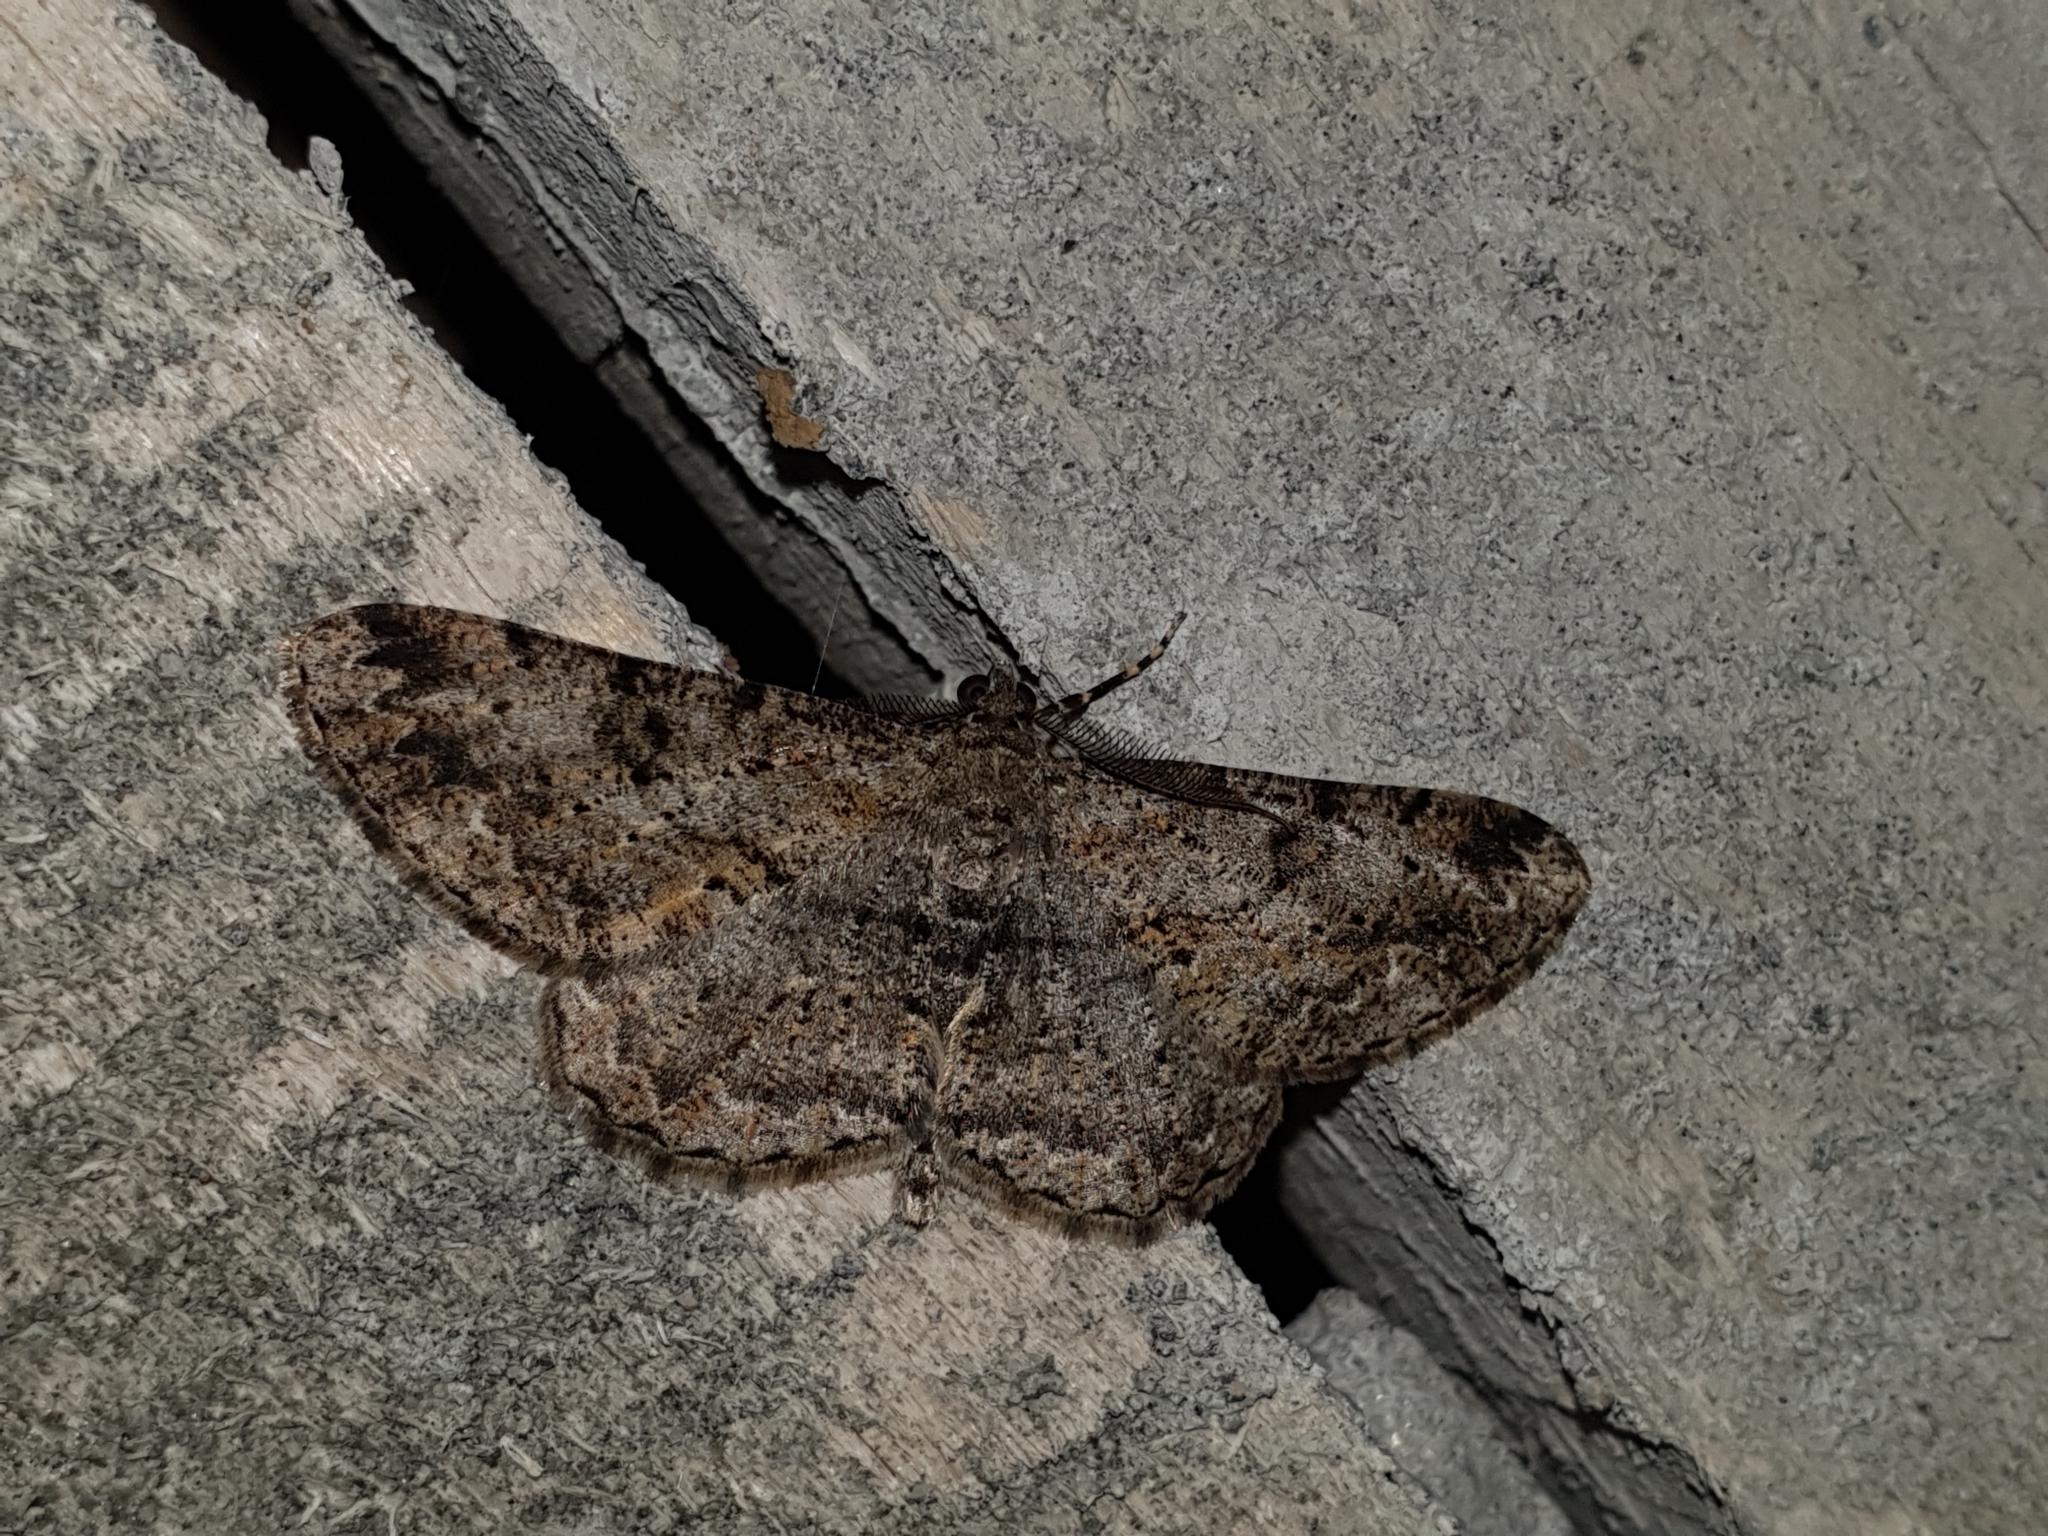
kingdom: Animalia
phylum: Arthropoda
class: Insecta
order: Lepidoptera
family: Geometridae
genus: Peribatodes
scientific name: Peribatodes rhomboidaria
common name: Willow beauty
